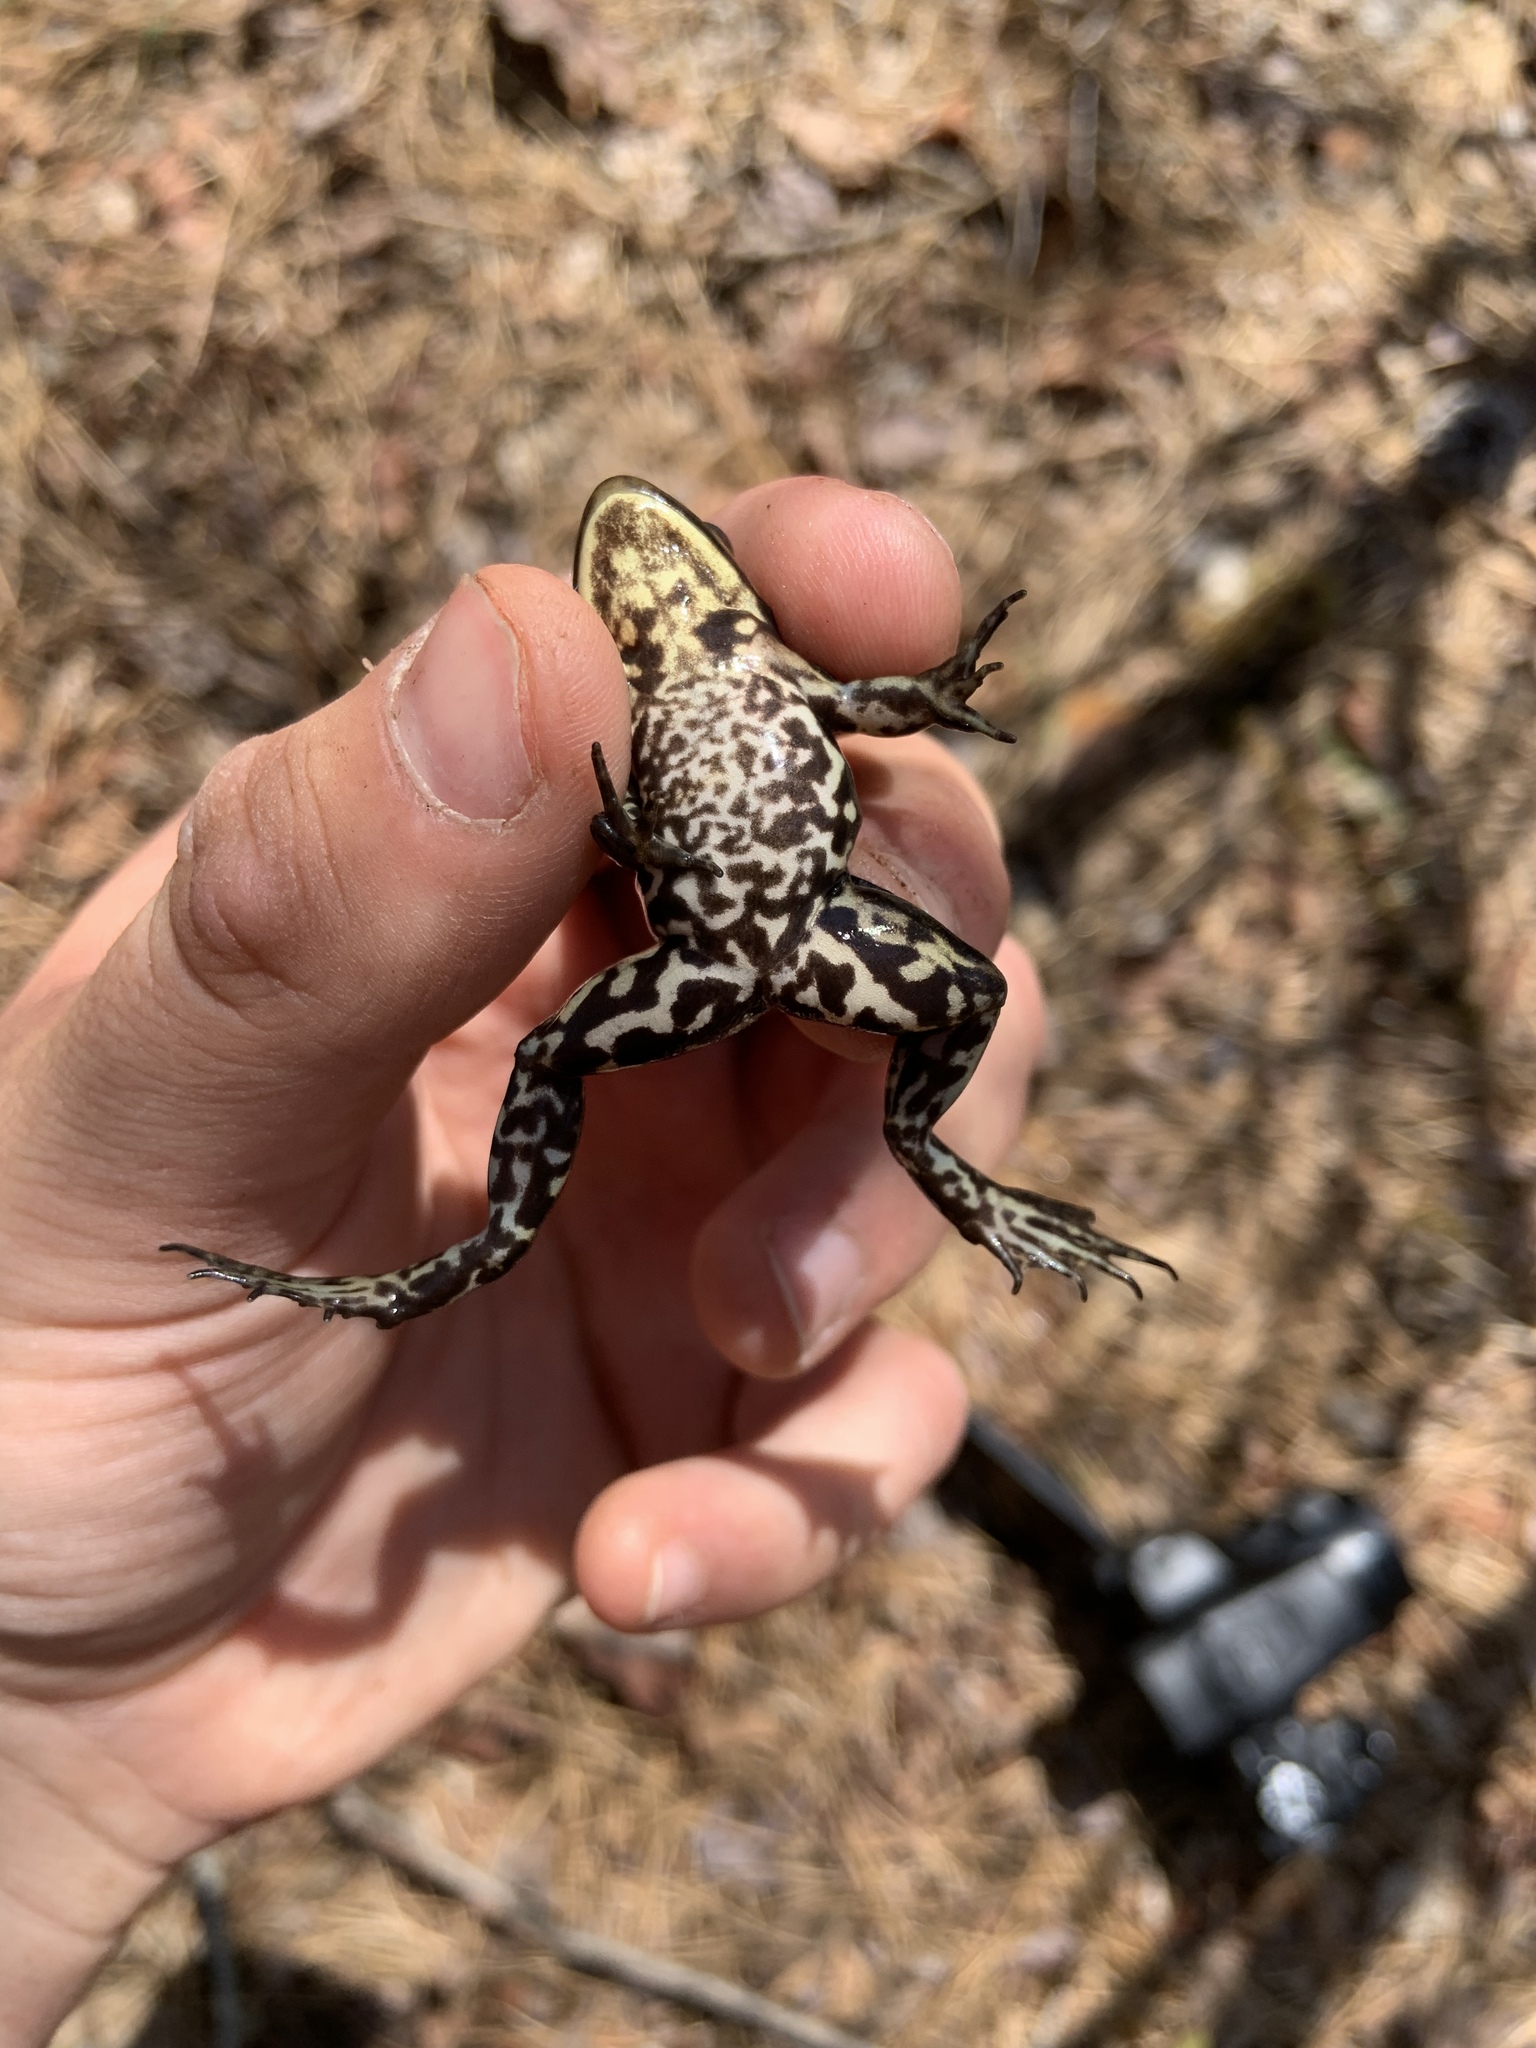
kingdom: Animalia
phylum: Chordata
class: Amphibia
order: Anura
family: Ranidae
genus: Lithobates
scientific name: Lithobates virgatipes
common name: Carpenter frog
